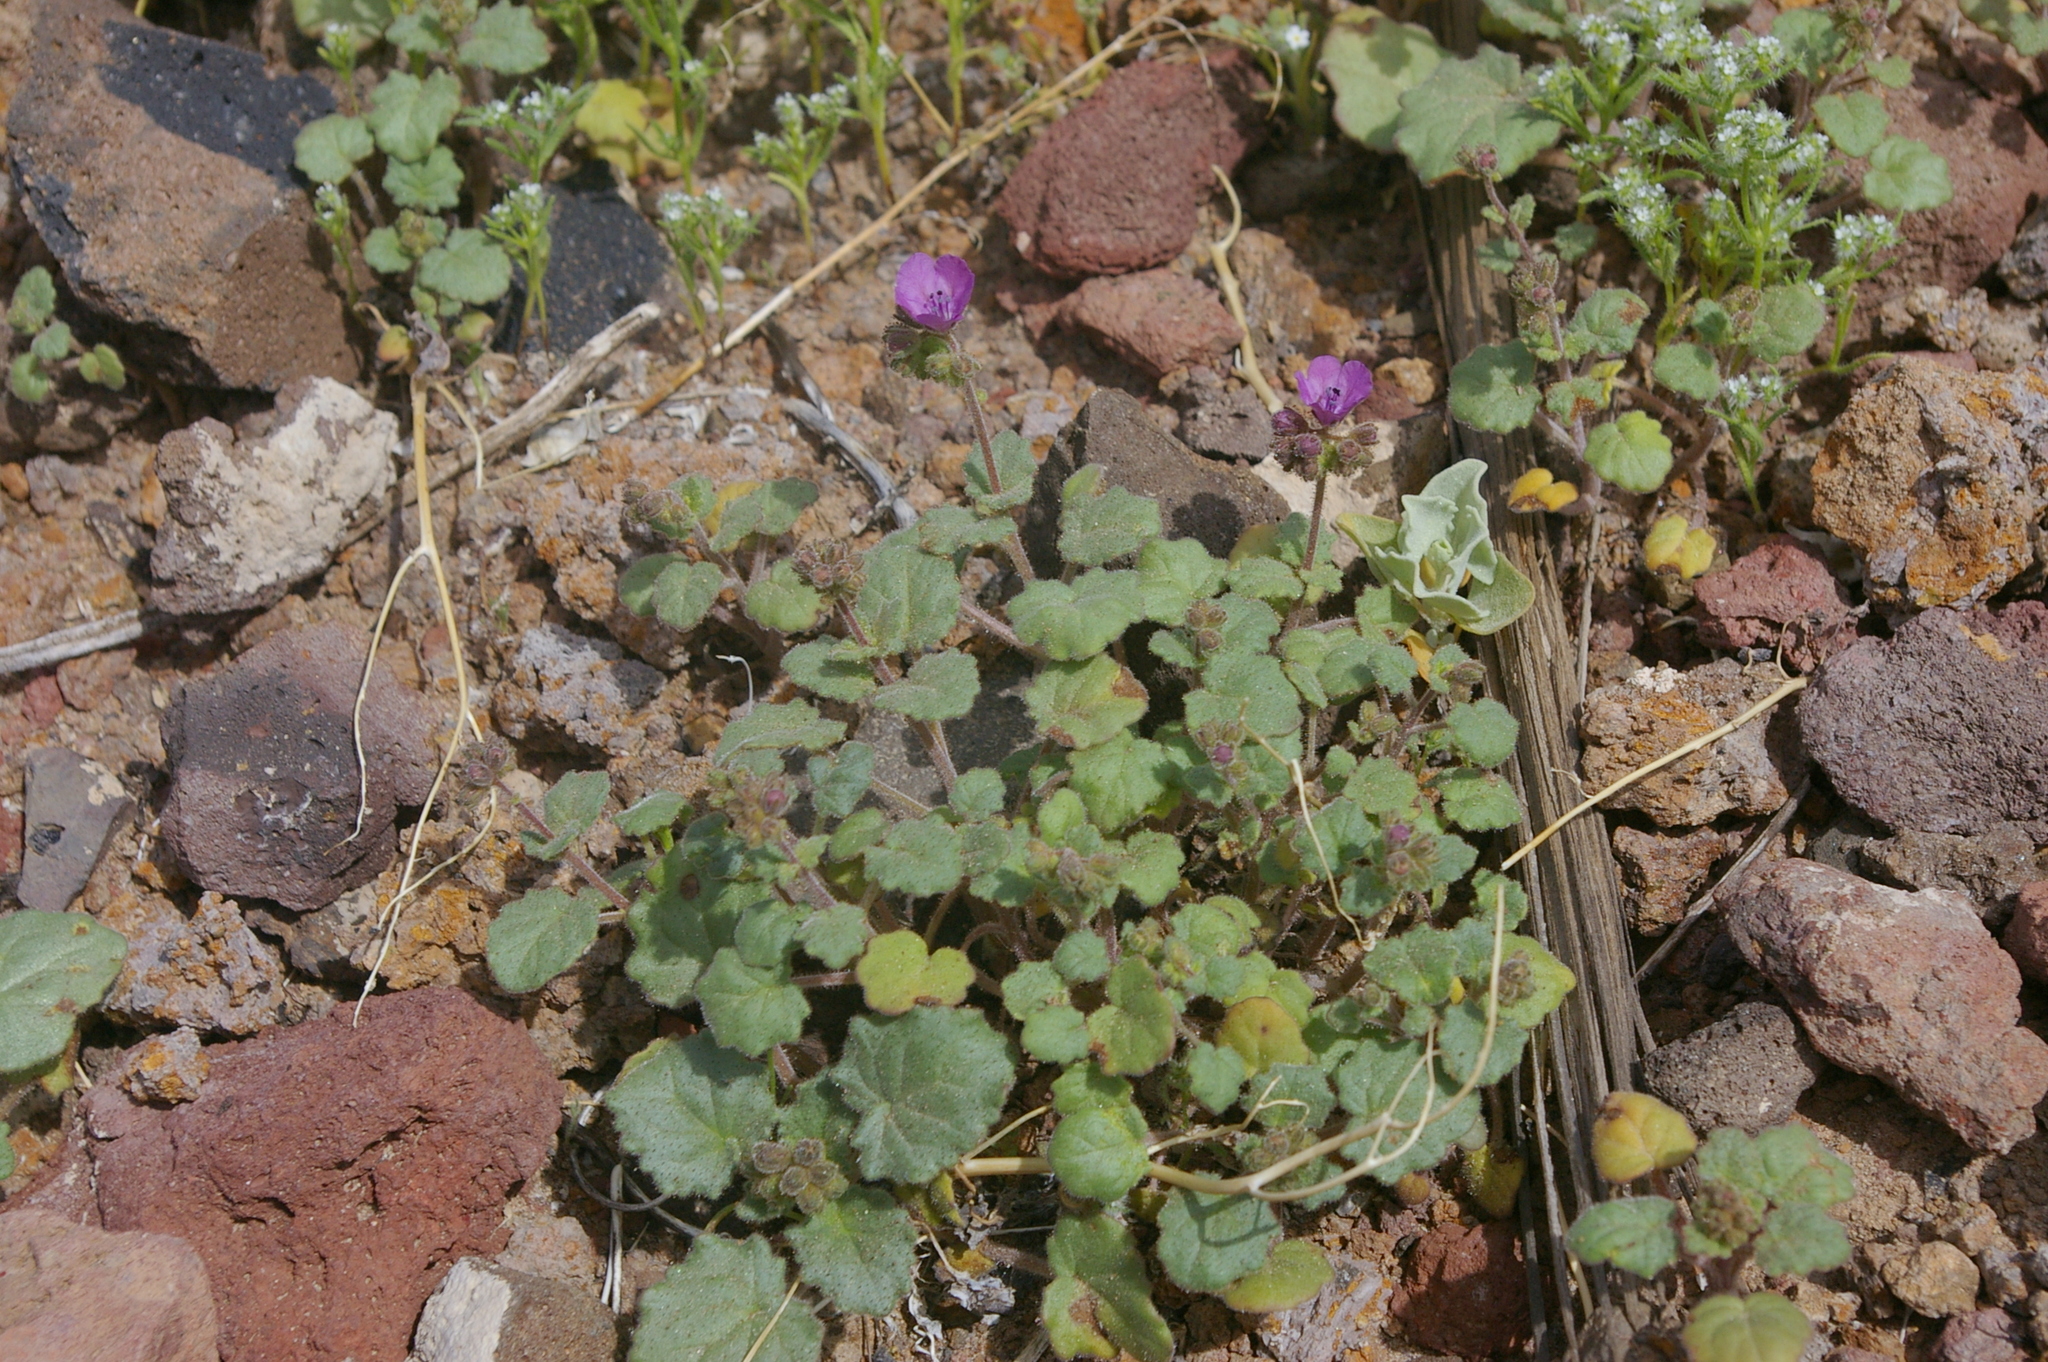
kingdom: Plantae
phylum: Tracheophyta
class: Magnoliopsida
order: Boraginales
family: Hydrophyllaceae
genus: Phacelia
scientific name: Phacelia calthifolia
